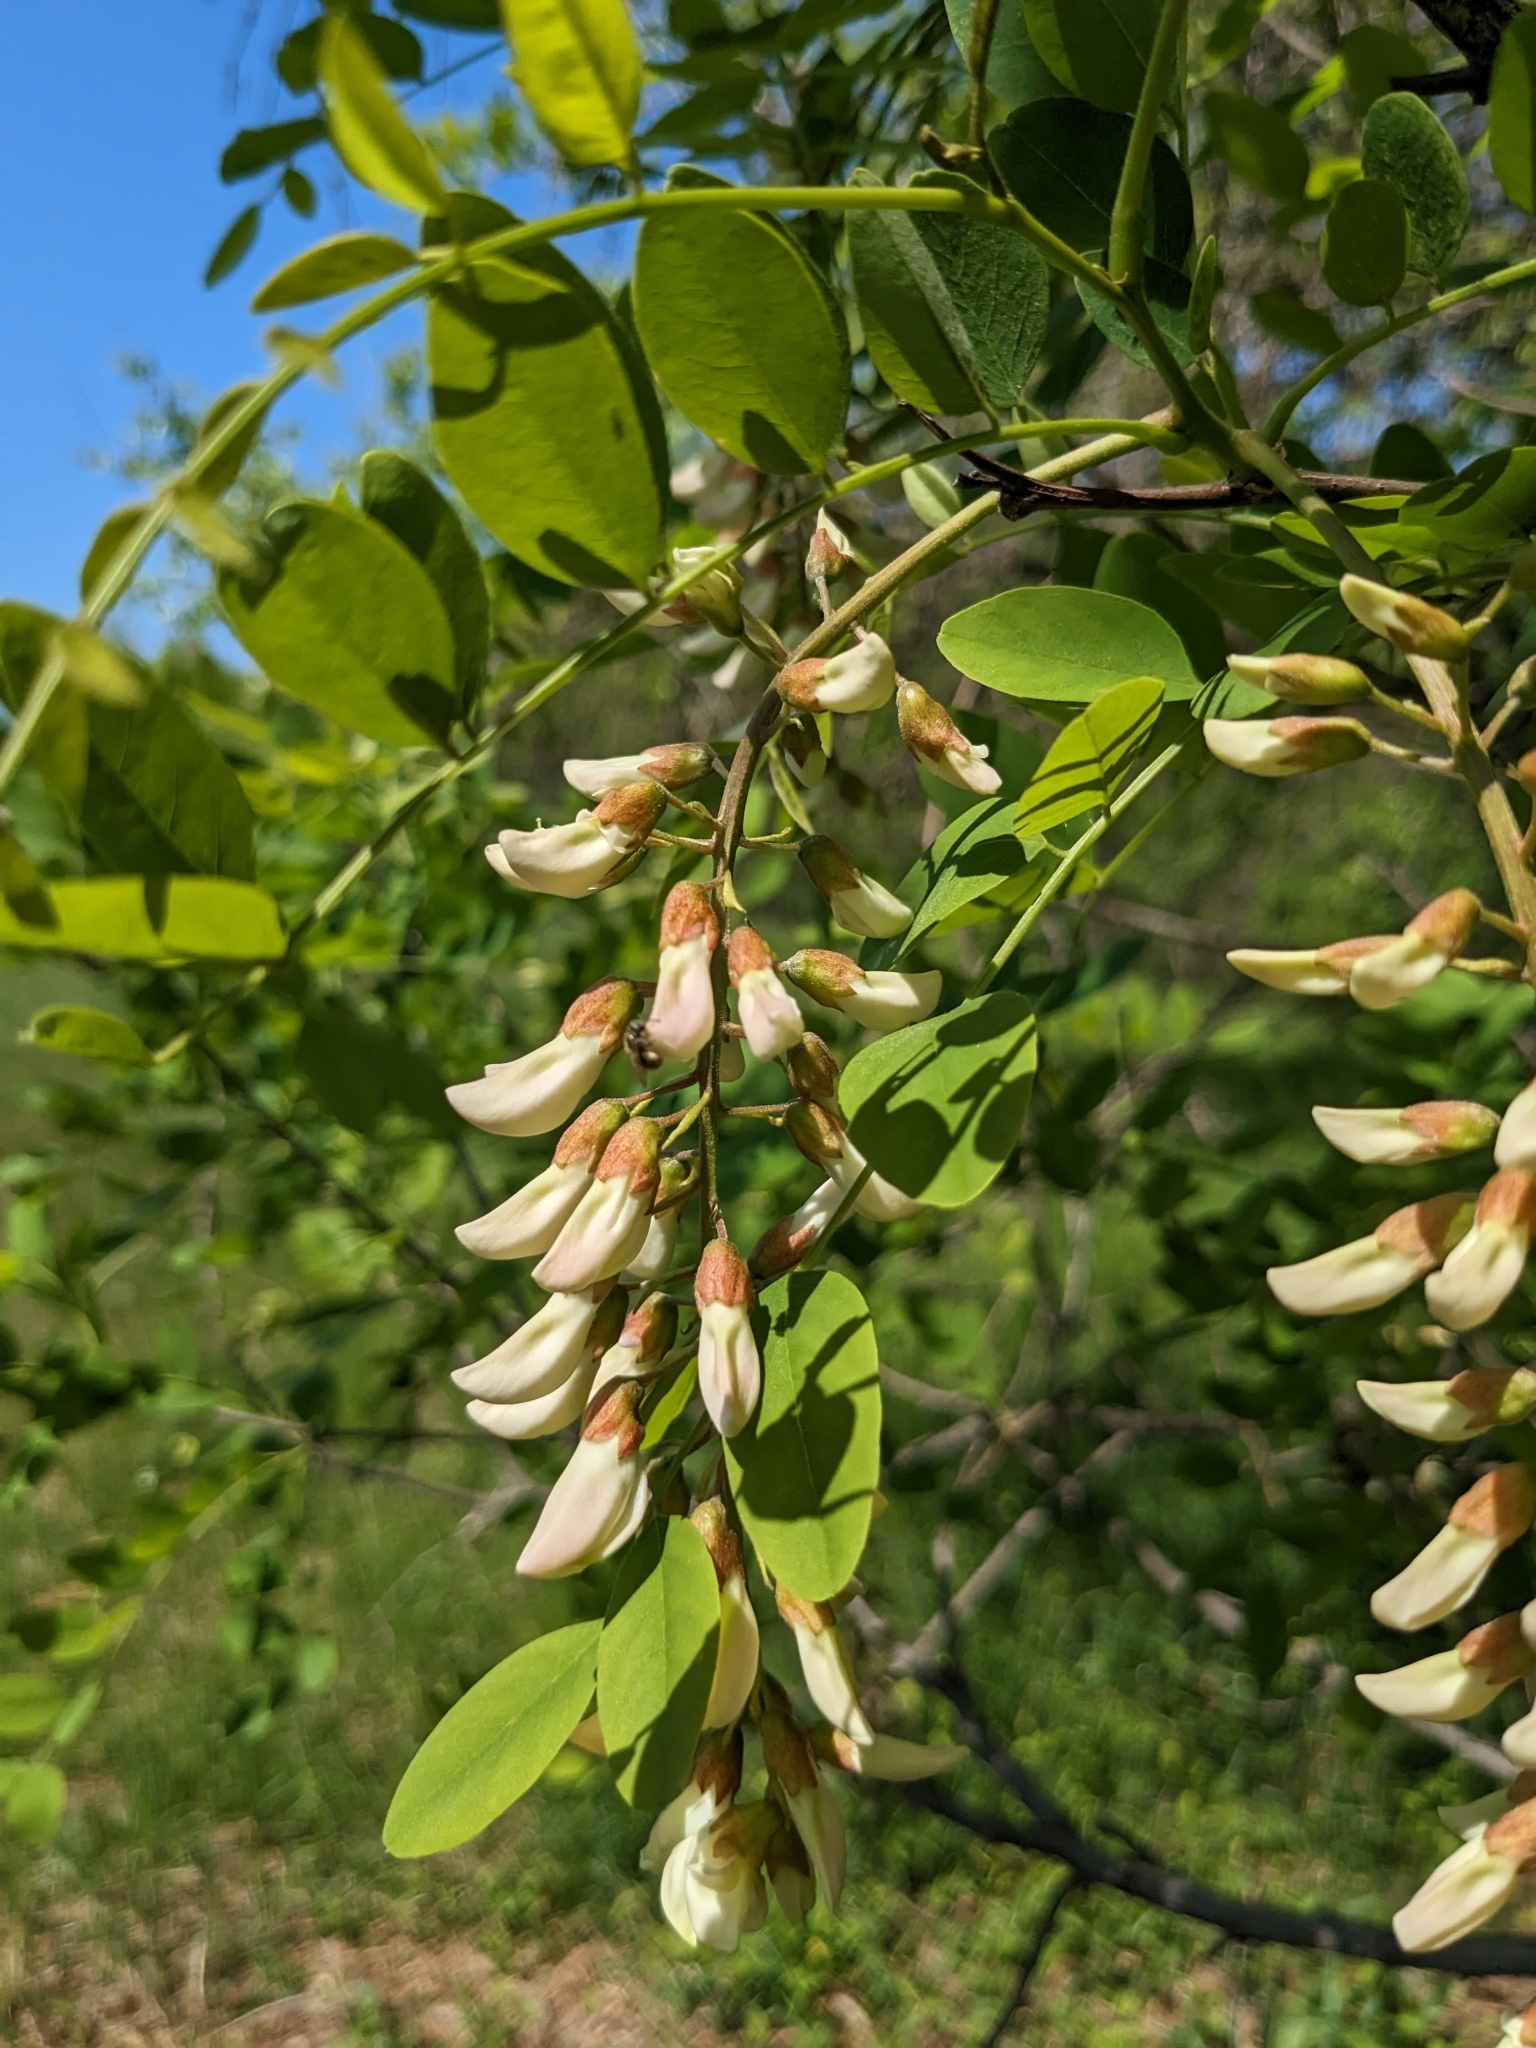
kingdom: Plantae
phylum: Tracheophyta
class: Magnoliopsida
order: Fabales
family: Fabaceae
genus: Robinia
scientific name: Robinia pseudoacacia
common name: Black locust
